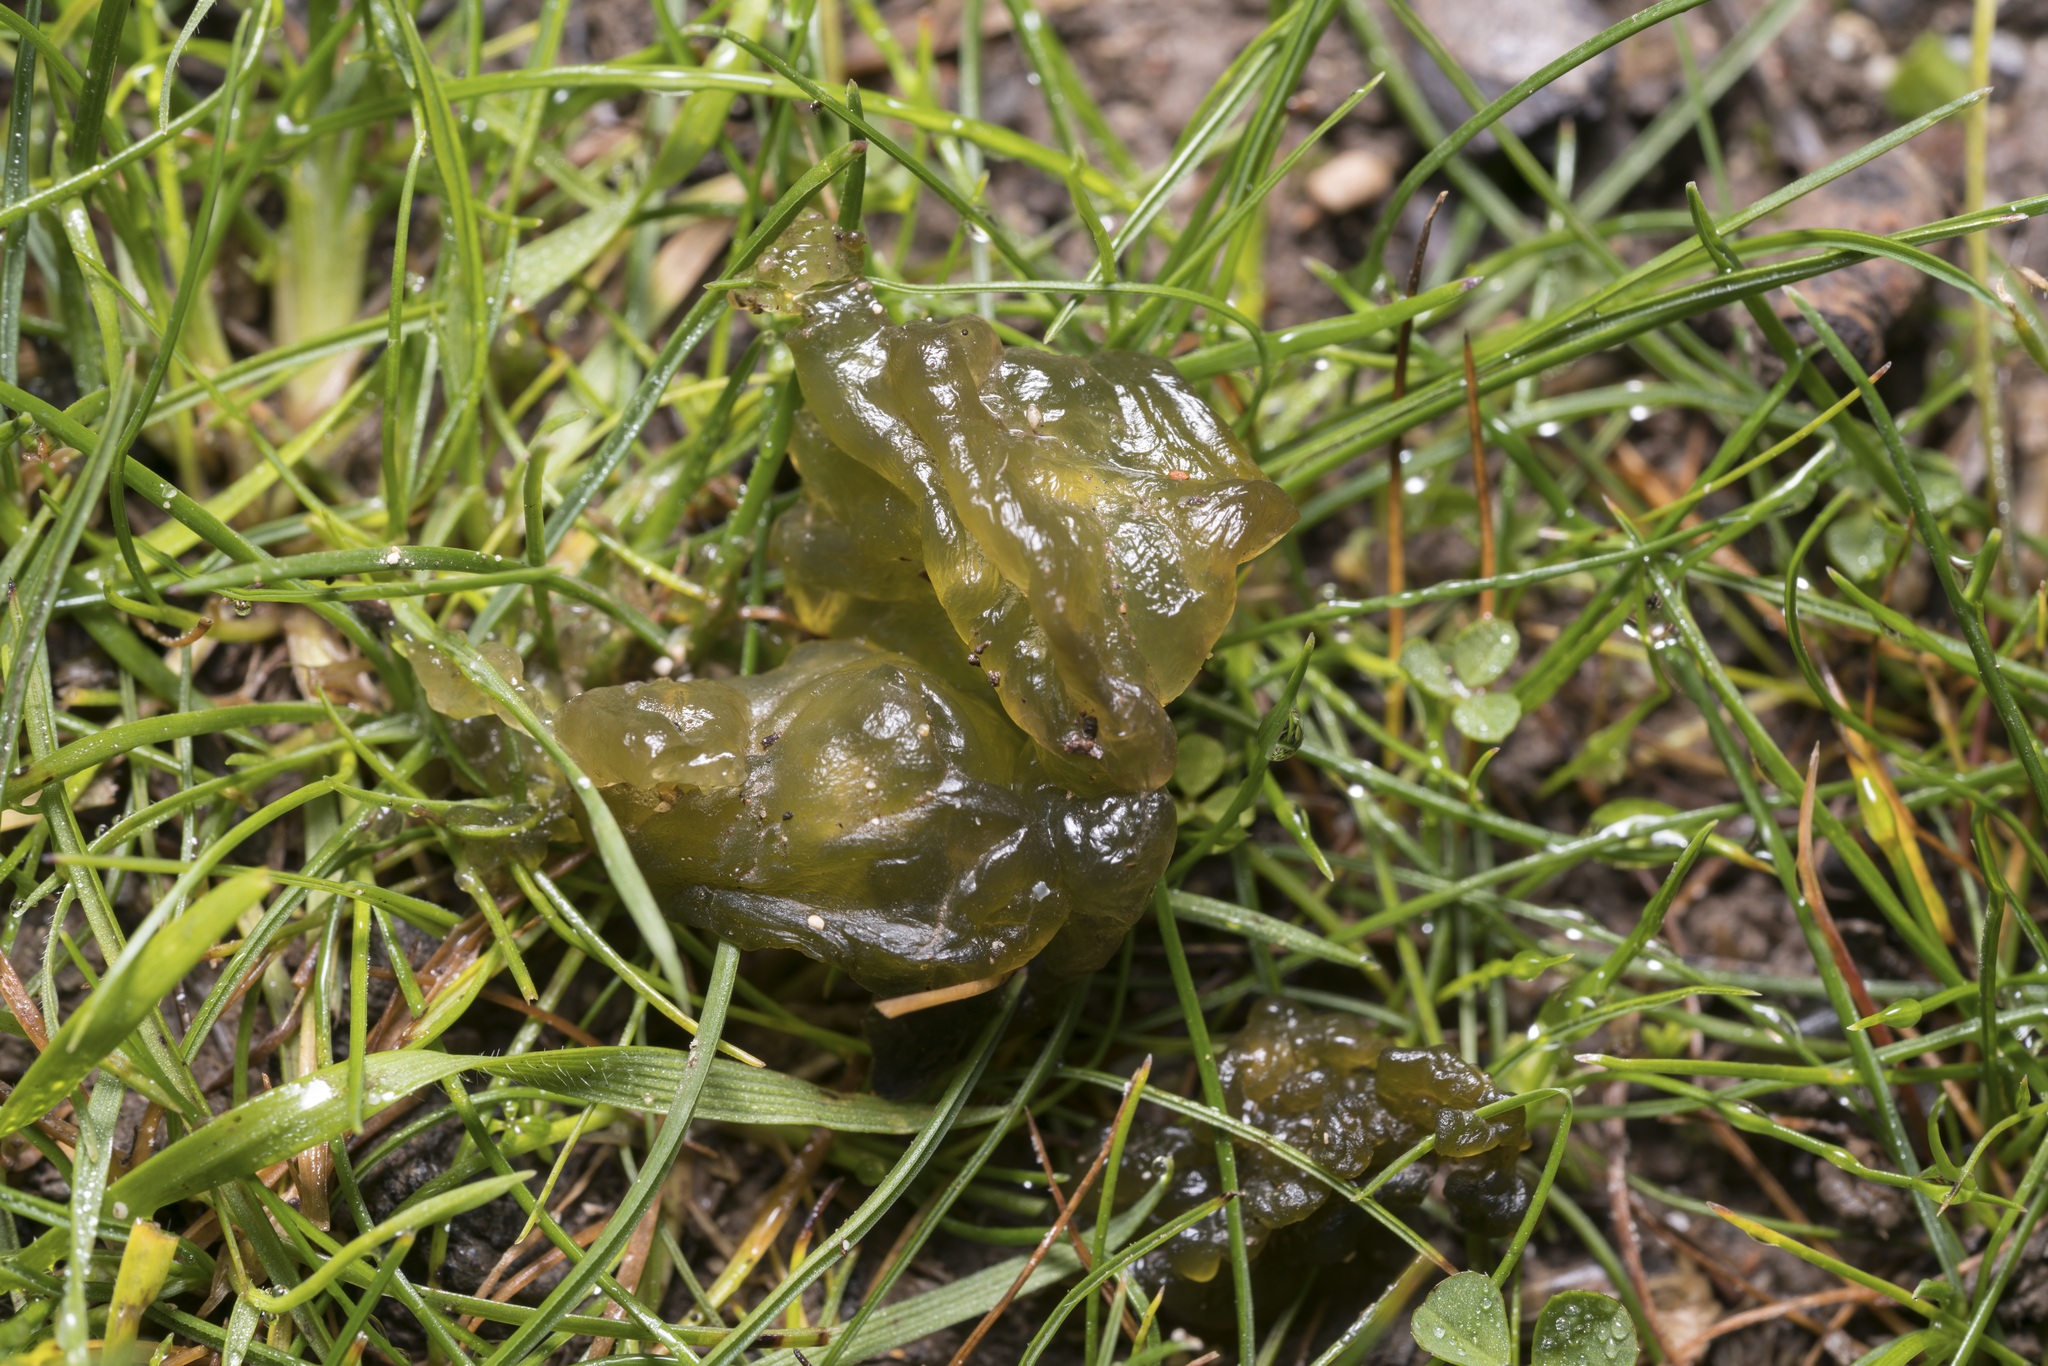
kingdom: Bacteria
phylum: Cyanobacteria
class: Cyanobacteriia
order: Cyanobacteriales
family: Nostocaceae
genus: Nostoc
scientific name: Nostoc commune
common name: Star jelly
